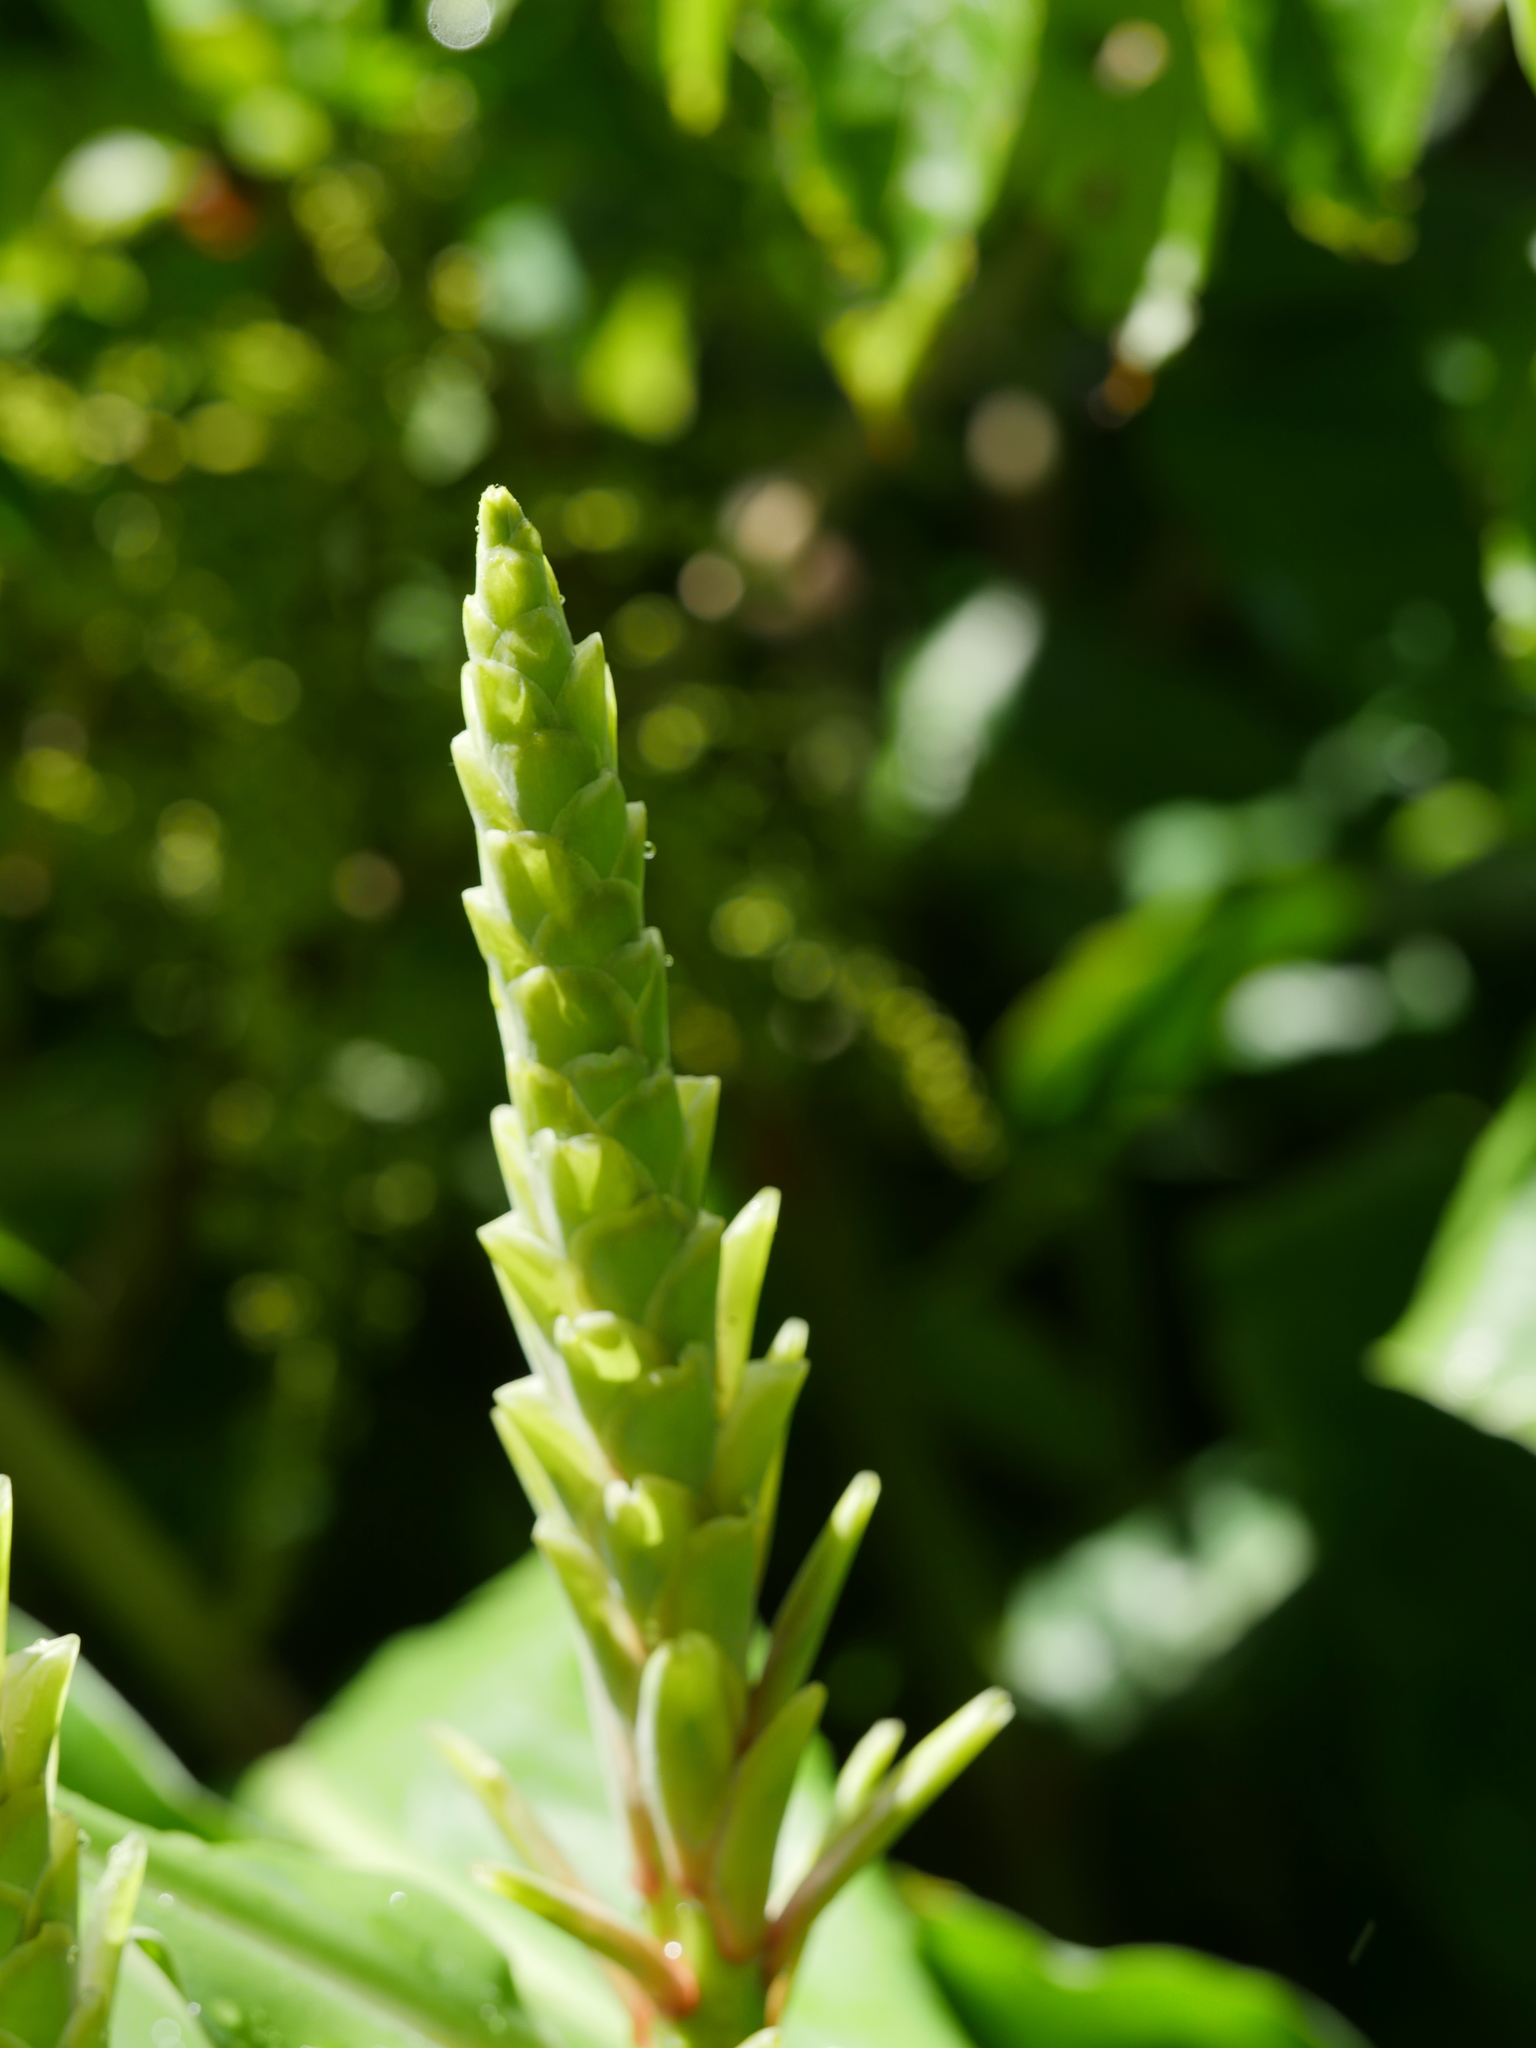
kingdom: Plantae
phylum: Tracheophyta
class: Liliopsida
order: Zingiberales
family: Zingiberaceae
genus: Hedychium
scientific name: Hedychium gardnerianum
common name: Himalayan ginger
